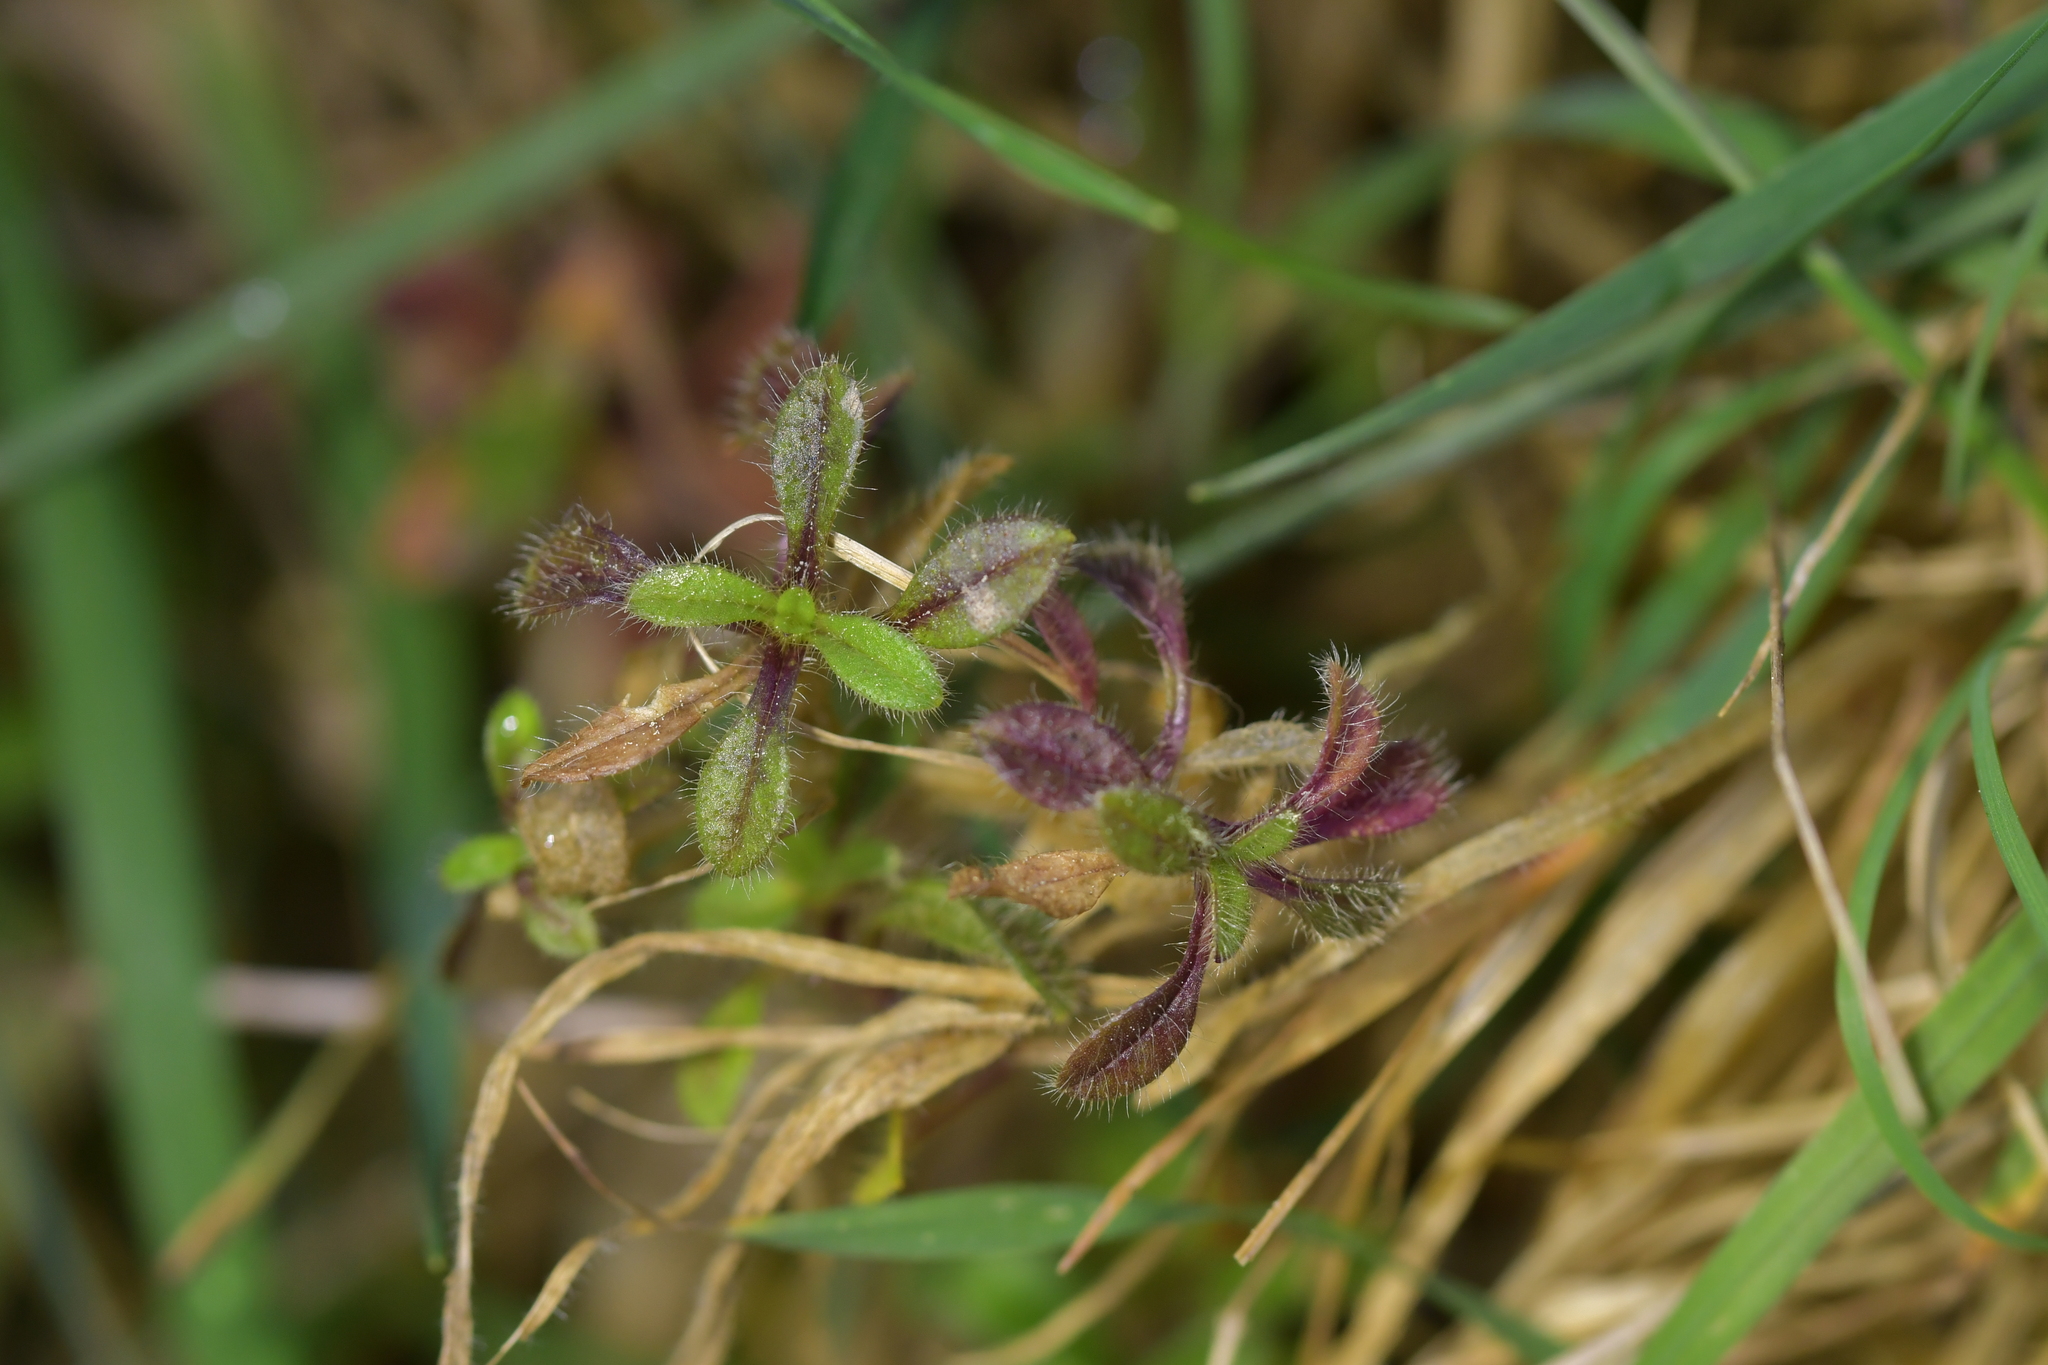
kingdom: Plantae
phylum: Tracheophyta
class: Magnoliopsida
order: Caryophyllales
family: Caryophyllaceae
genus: Cerastium
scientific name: Cerastium fontanum
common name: Common mouse-ear
